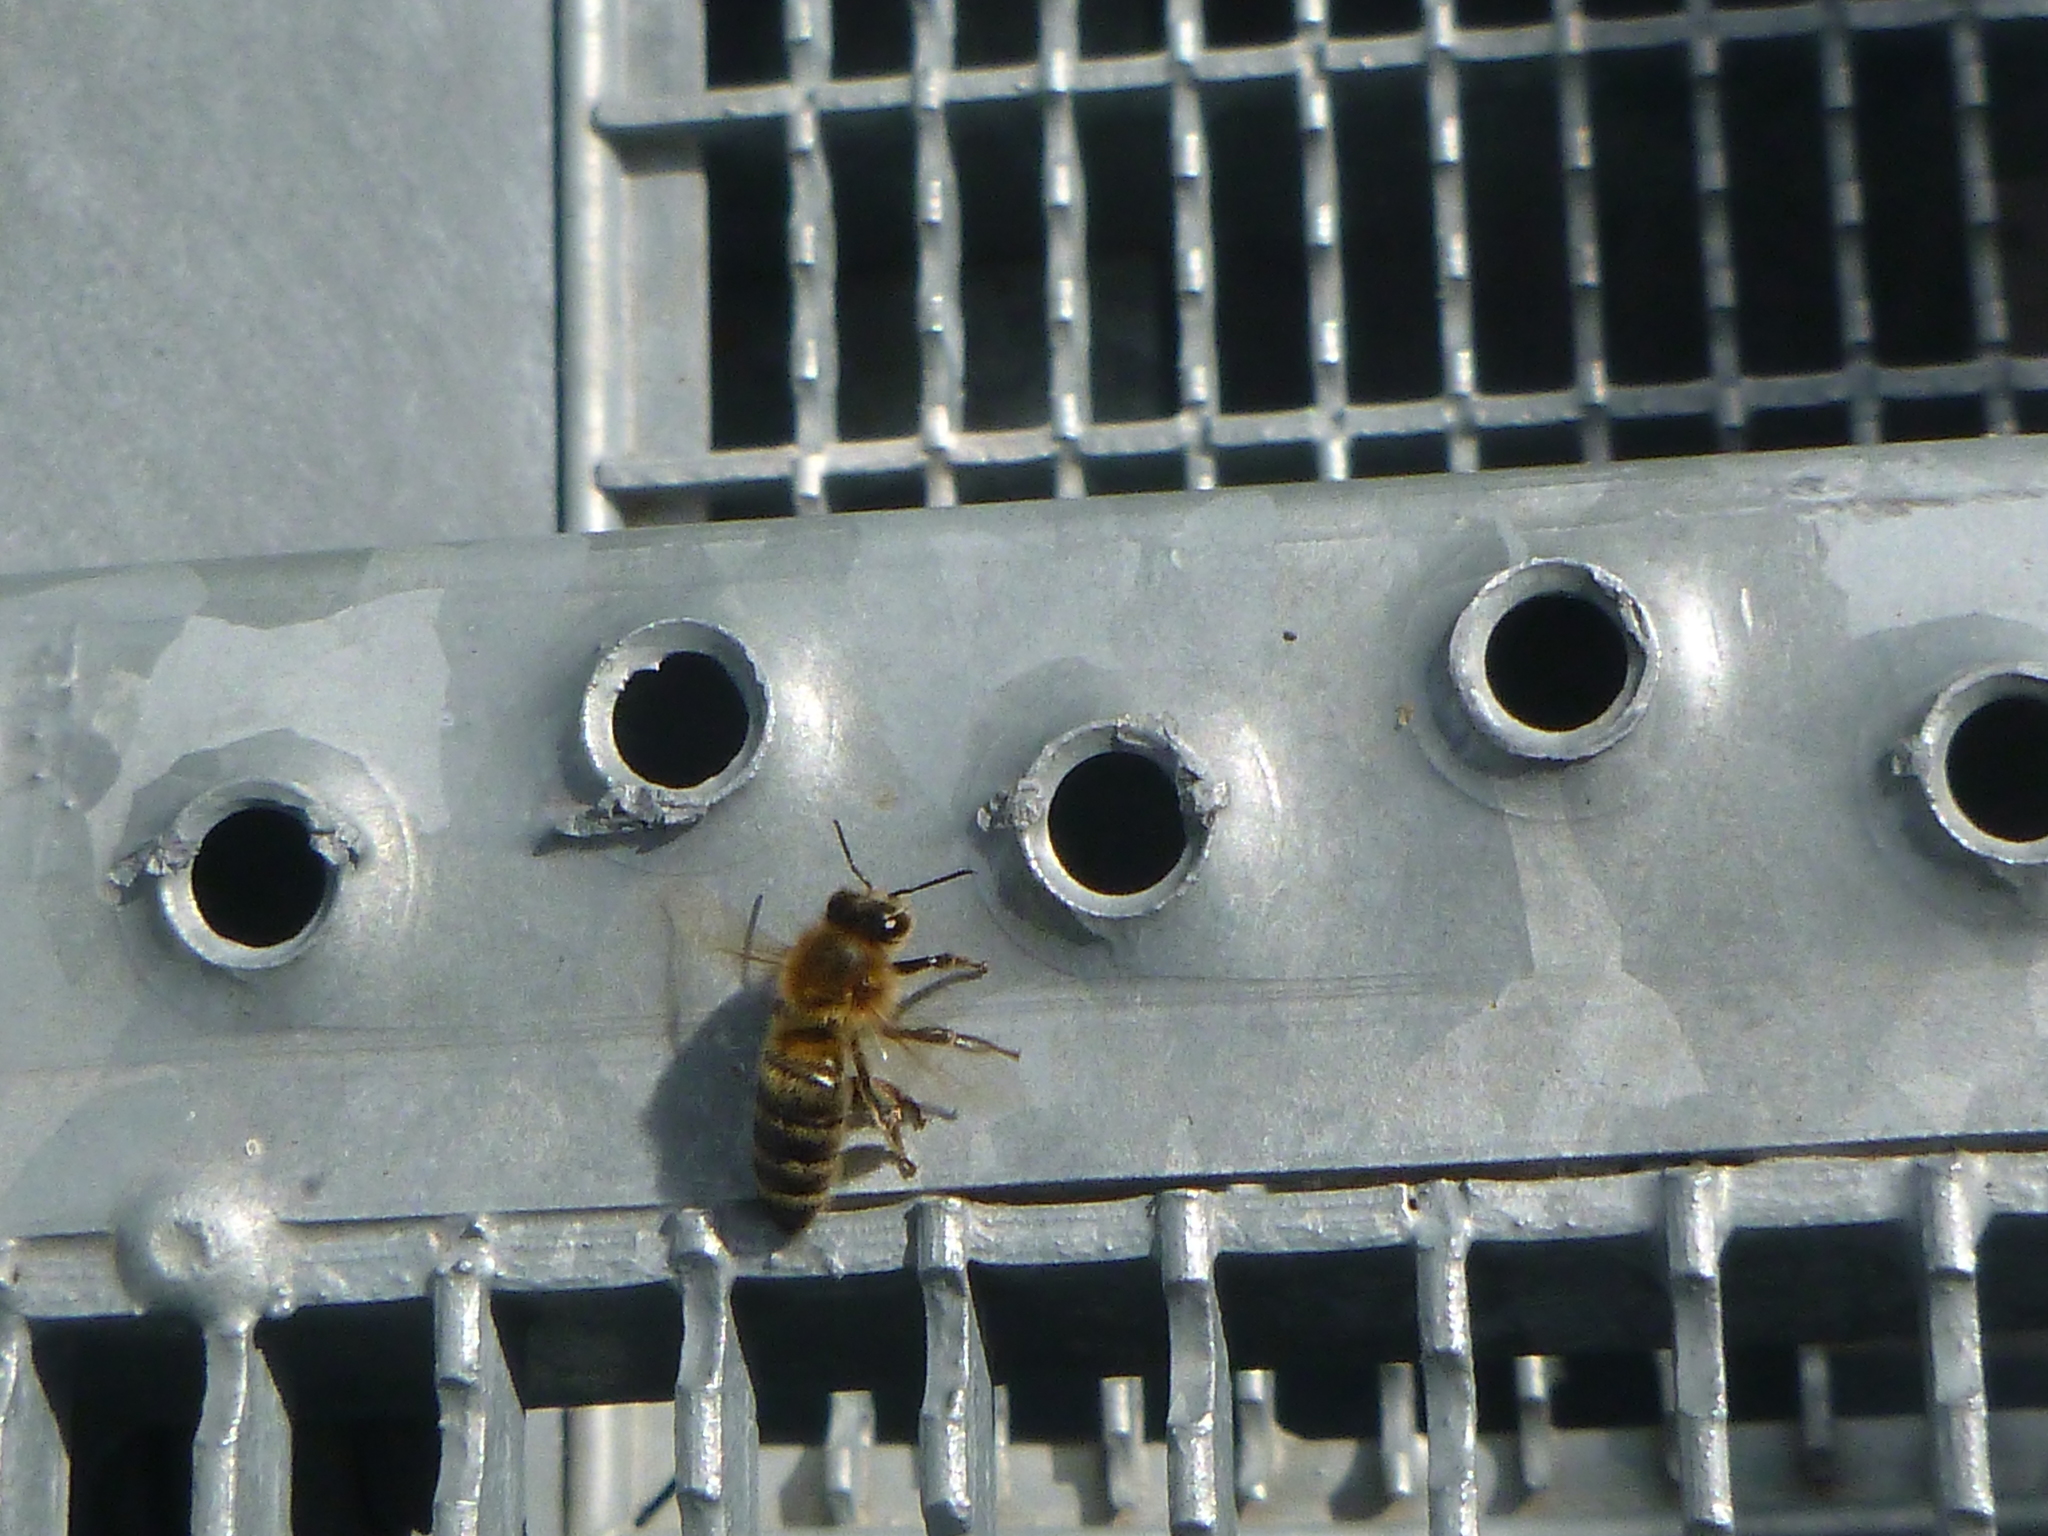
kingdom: Animalia
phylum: Arthropoda
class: Insecta
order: Hymenoptera
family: Apidae
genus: Apis
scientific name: Apis mellifera
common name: Honey bee
